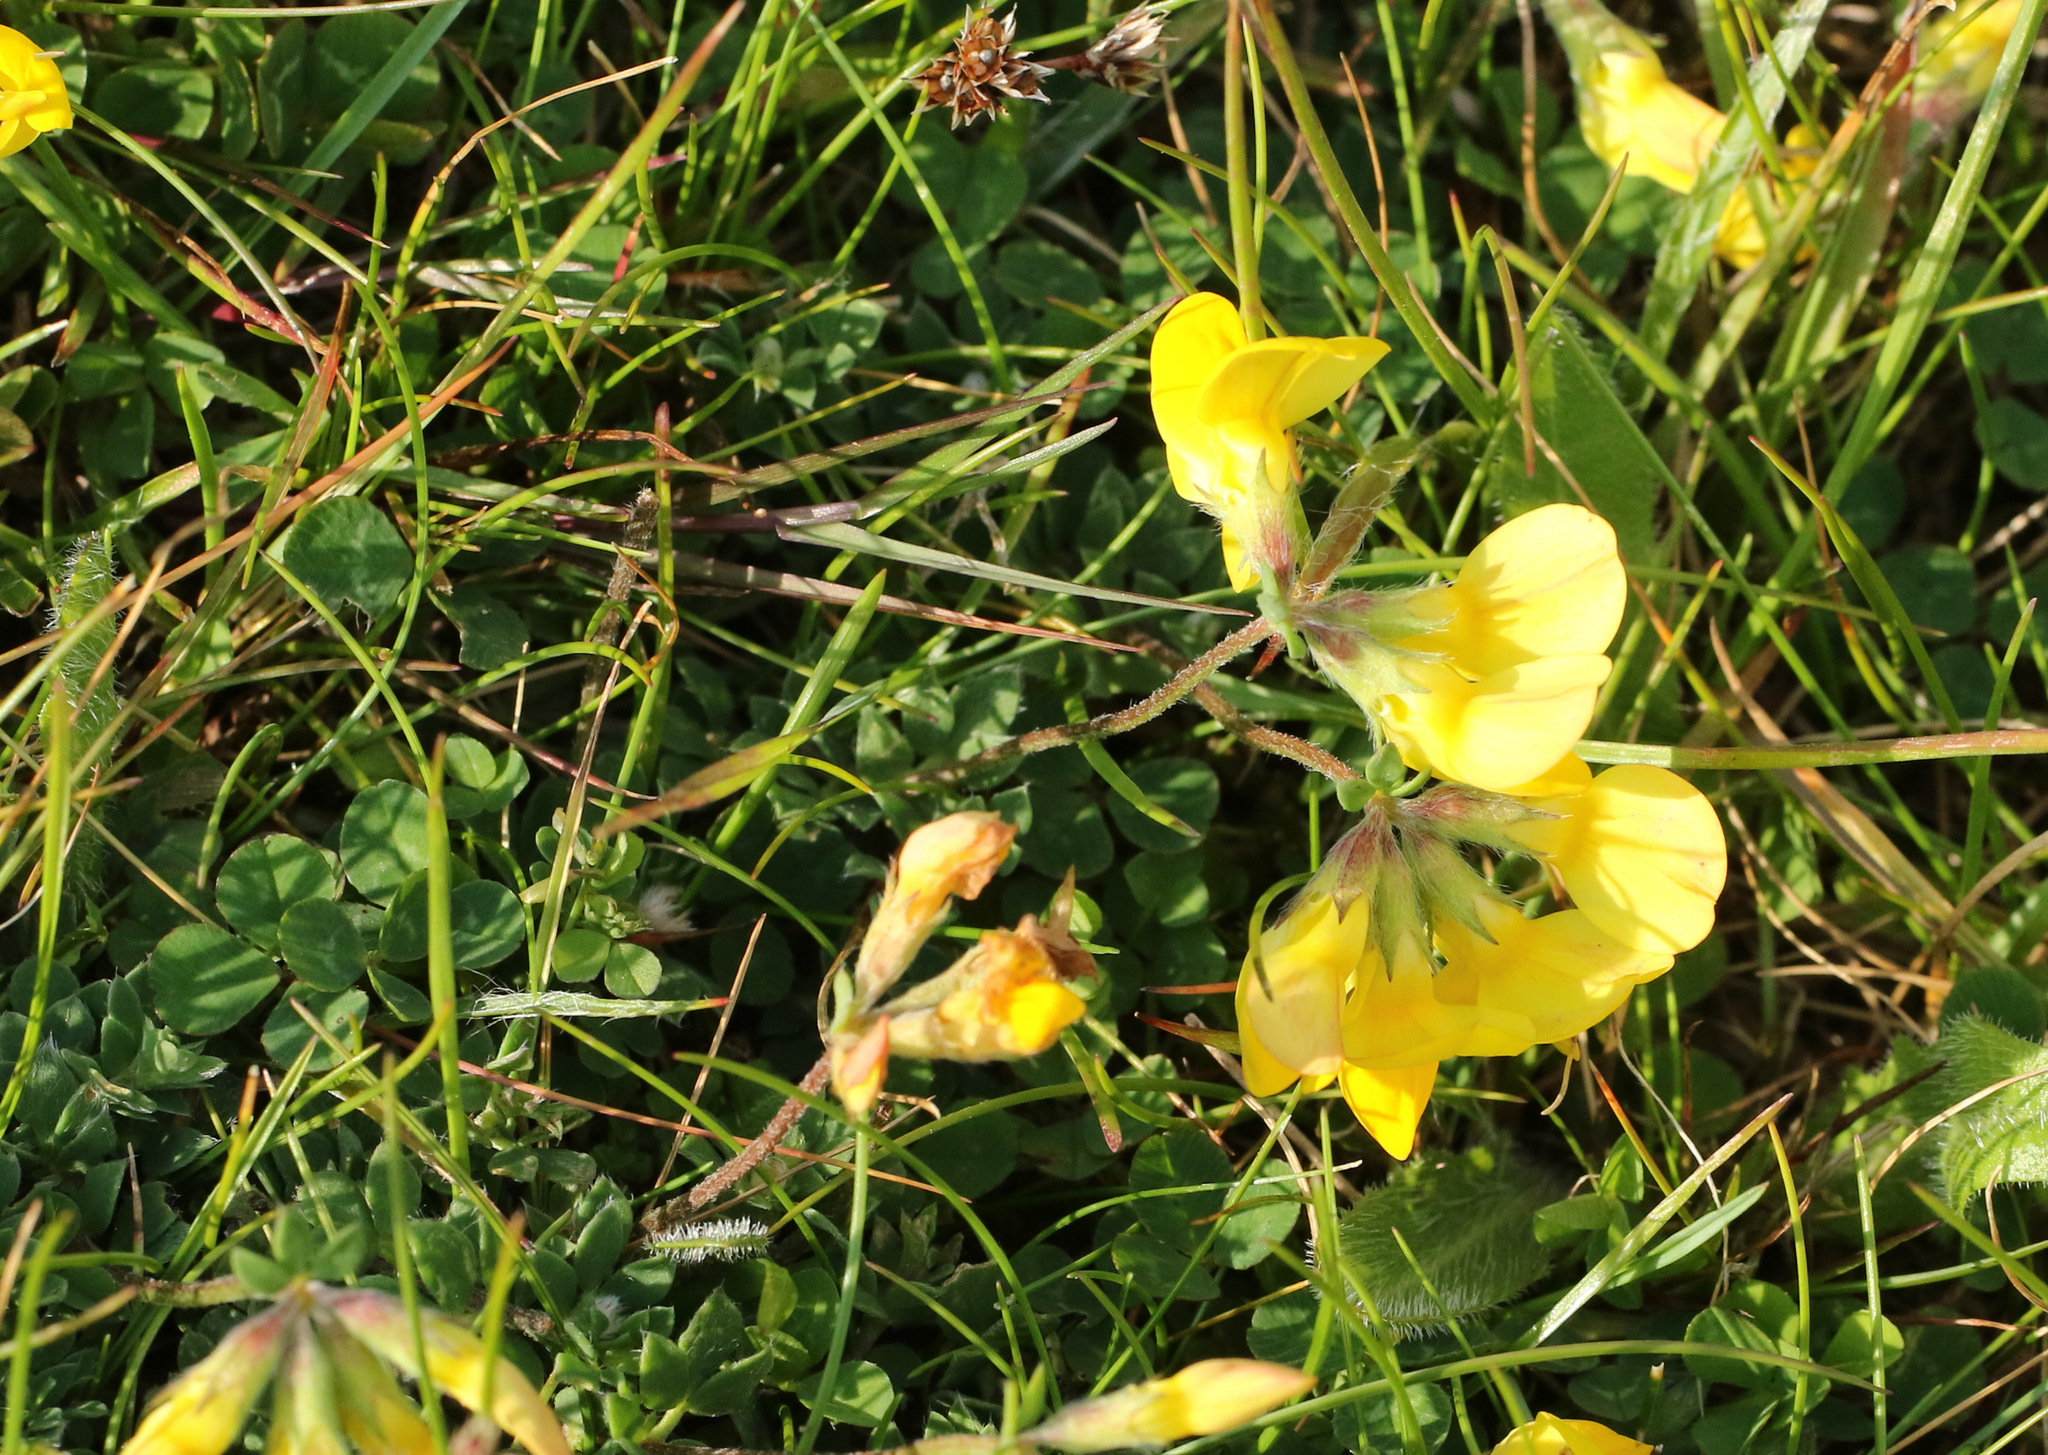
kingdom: Plantae
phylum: Tracheophyta
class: Magnoliopsida
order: Fabales
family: Fabaceae
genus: Lotus
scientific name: Lotus corniculatus
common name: Common bird's-foot-trefoil
